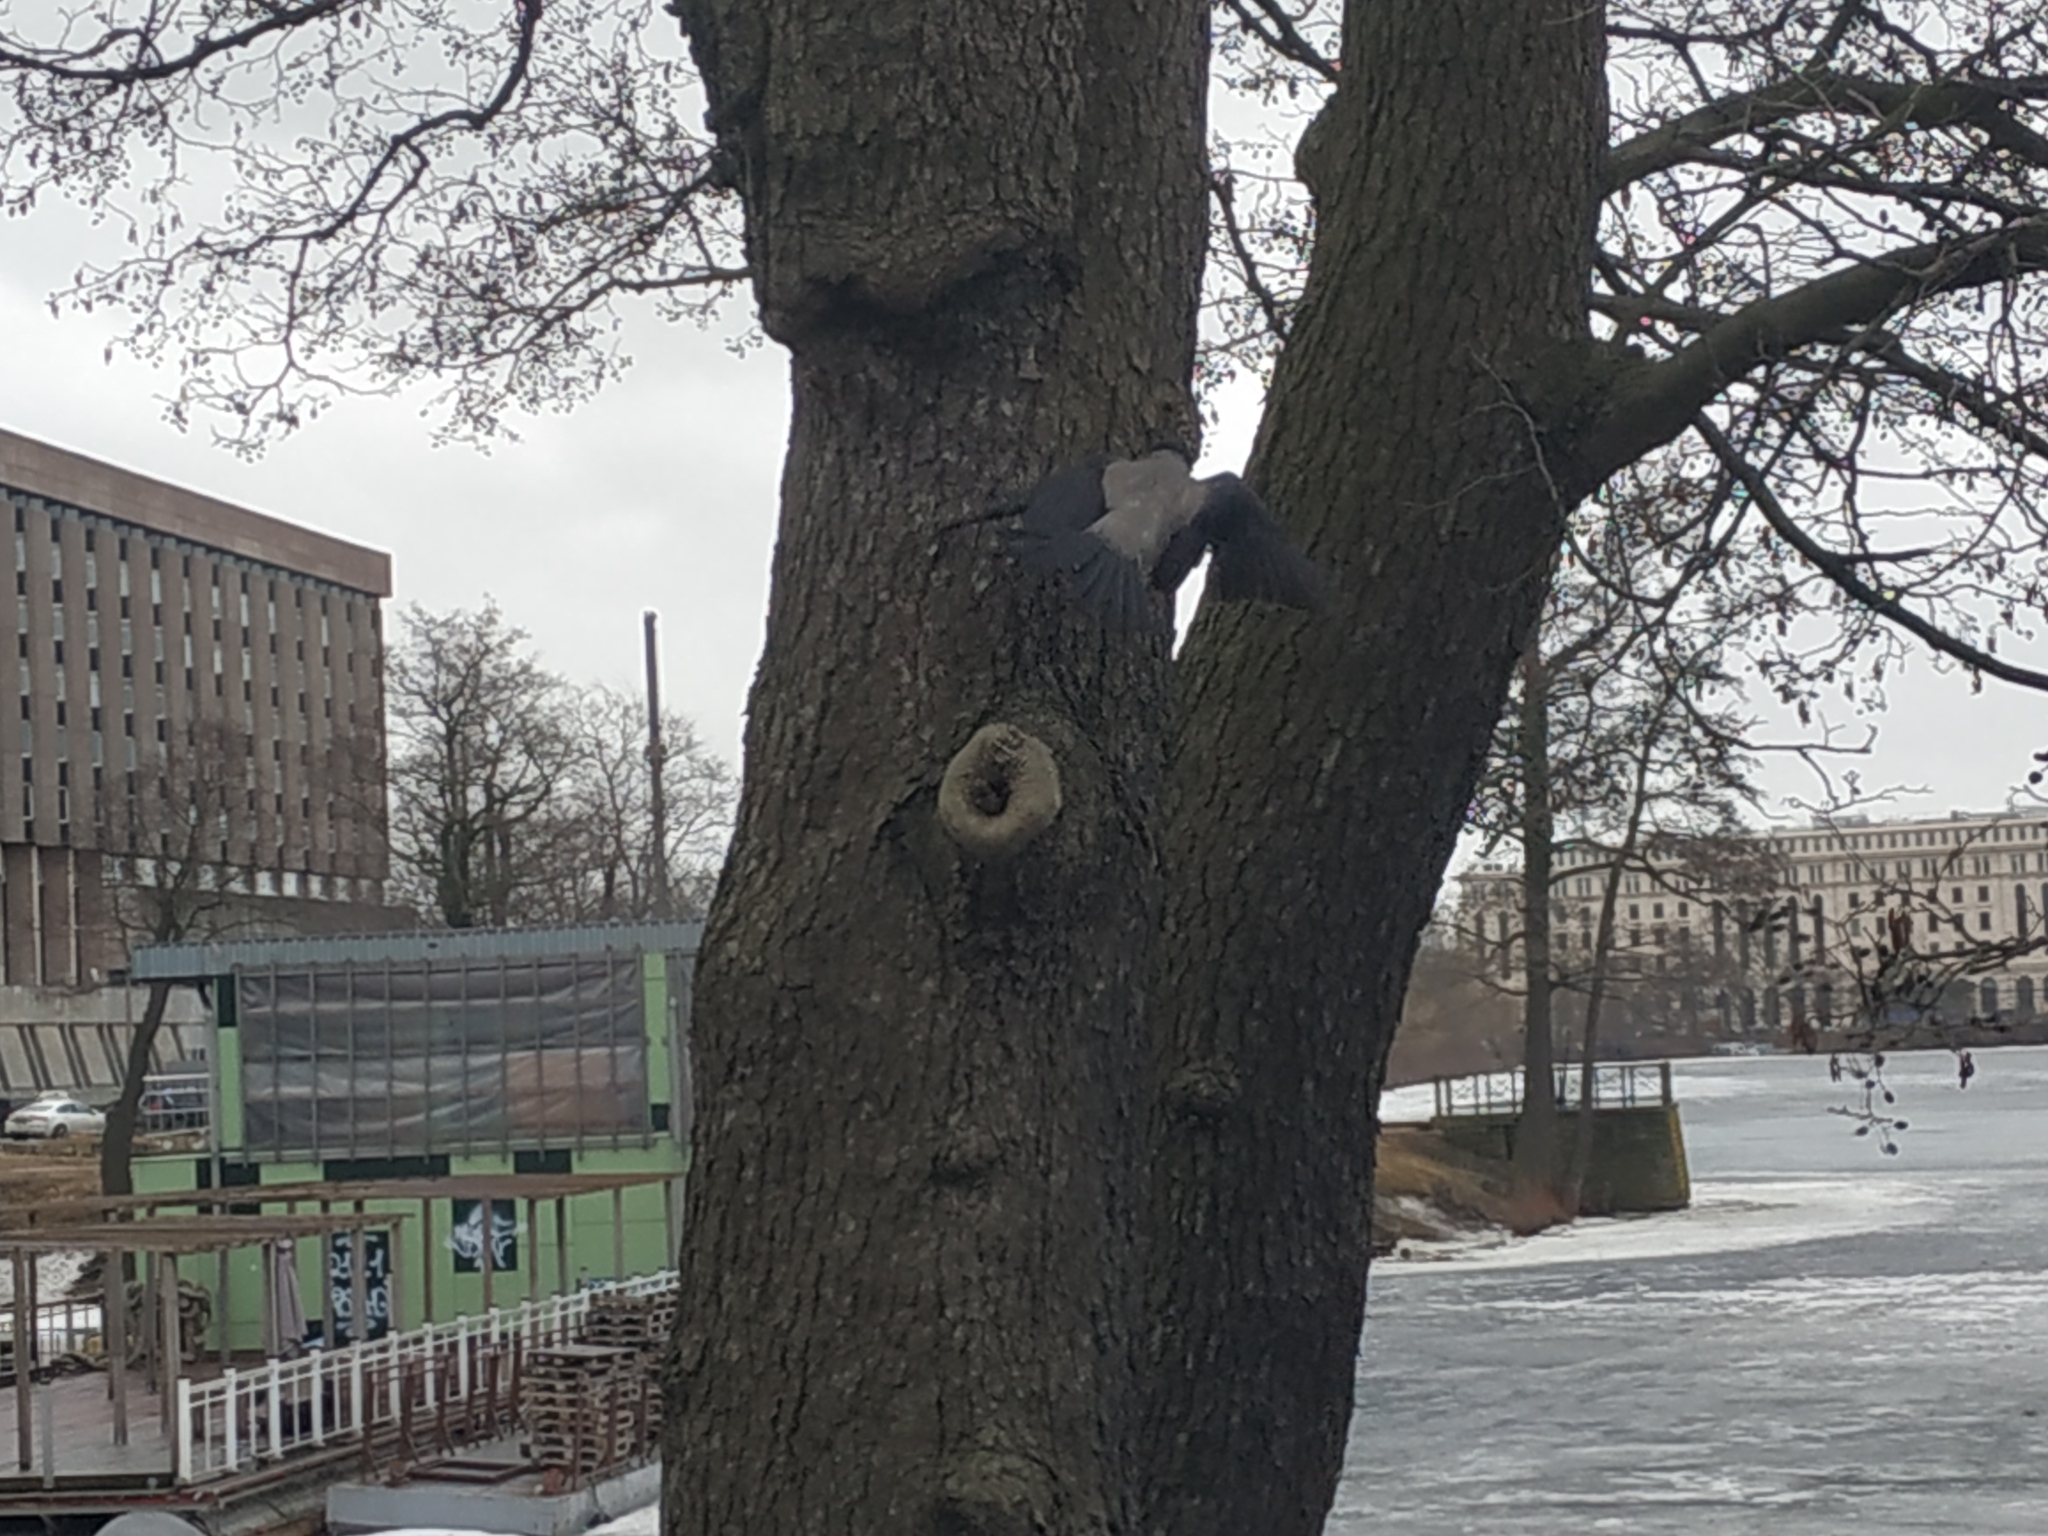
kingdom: Animalia
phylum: Chordata
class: Aves
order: Passeriformes
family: Corvidae
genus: Corvus
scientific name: Corvus cornix
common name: Hooded crow
